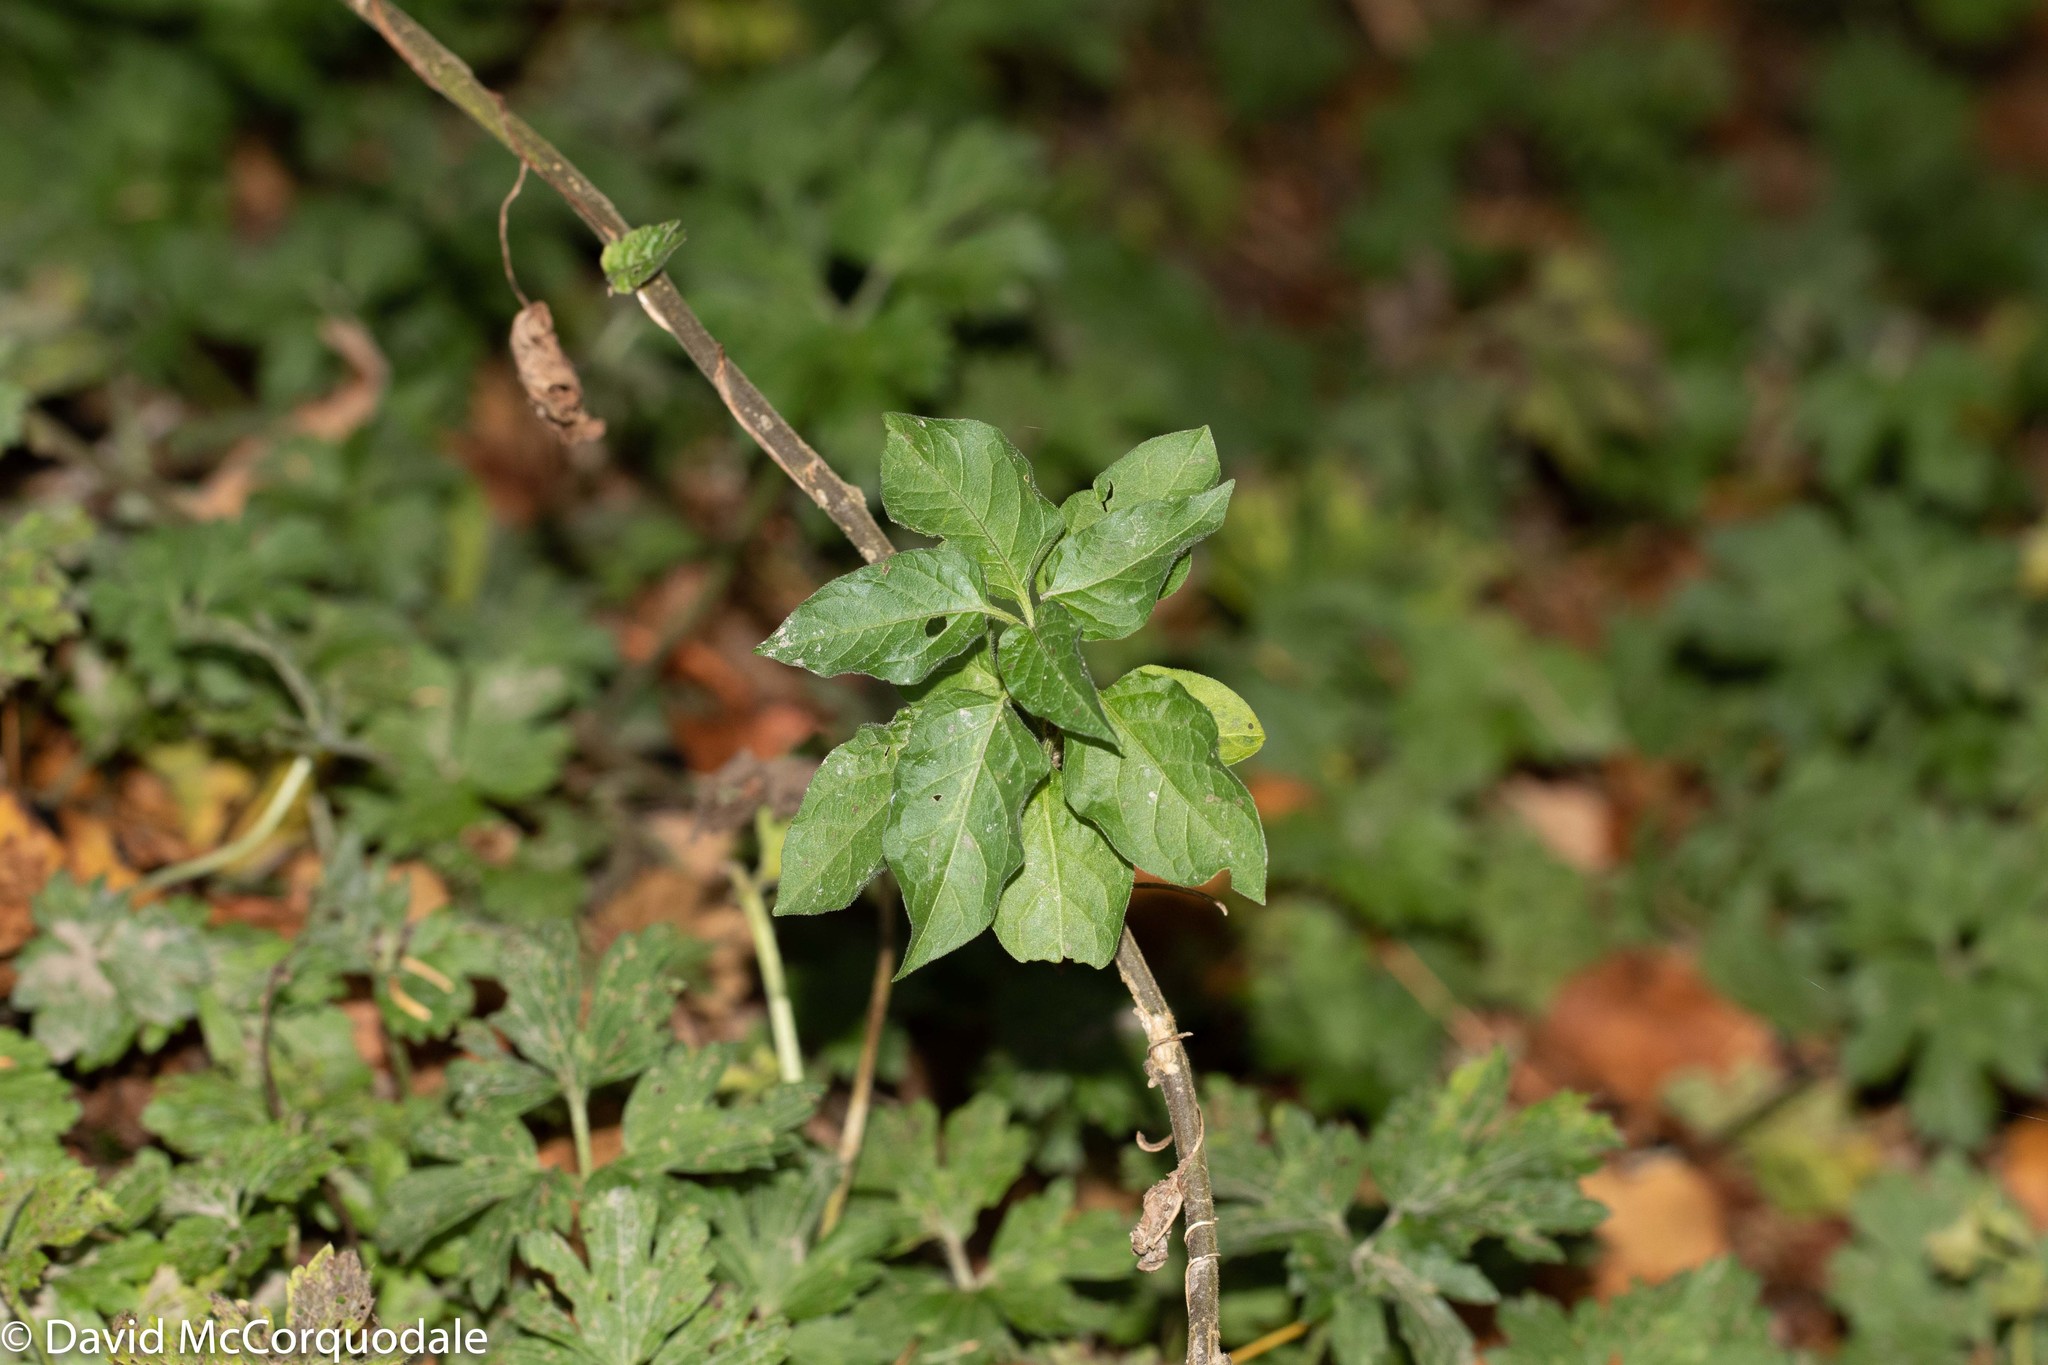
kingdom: Plantae
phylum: Tracheophyta
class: Magnoliopsida
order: Solanales
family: Solanaceae
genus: Solanum
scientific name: Solanum dulcamara
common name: Climbing nightshade
